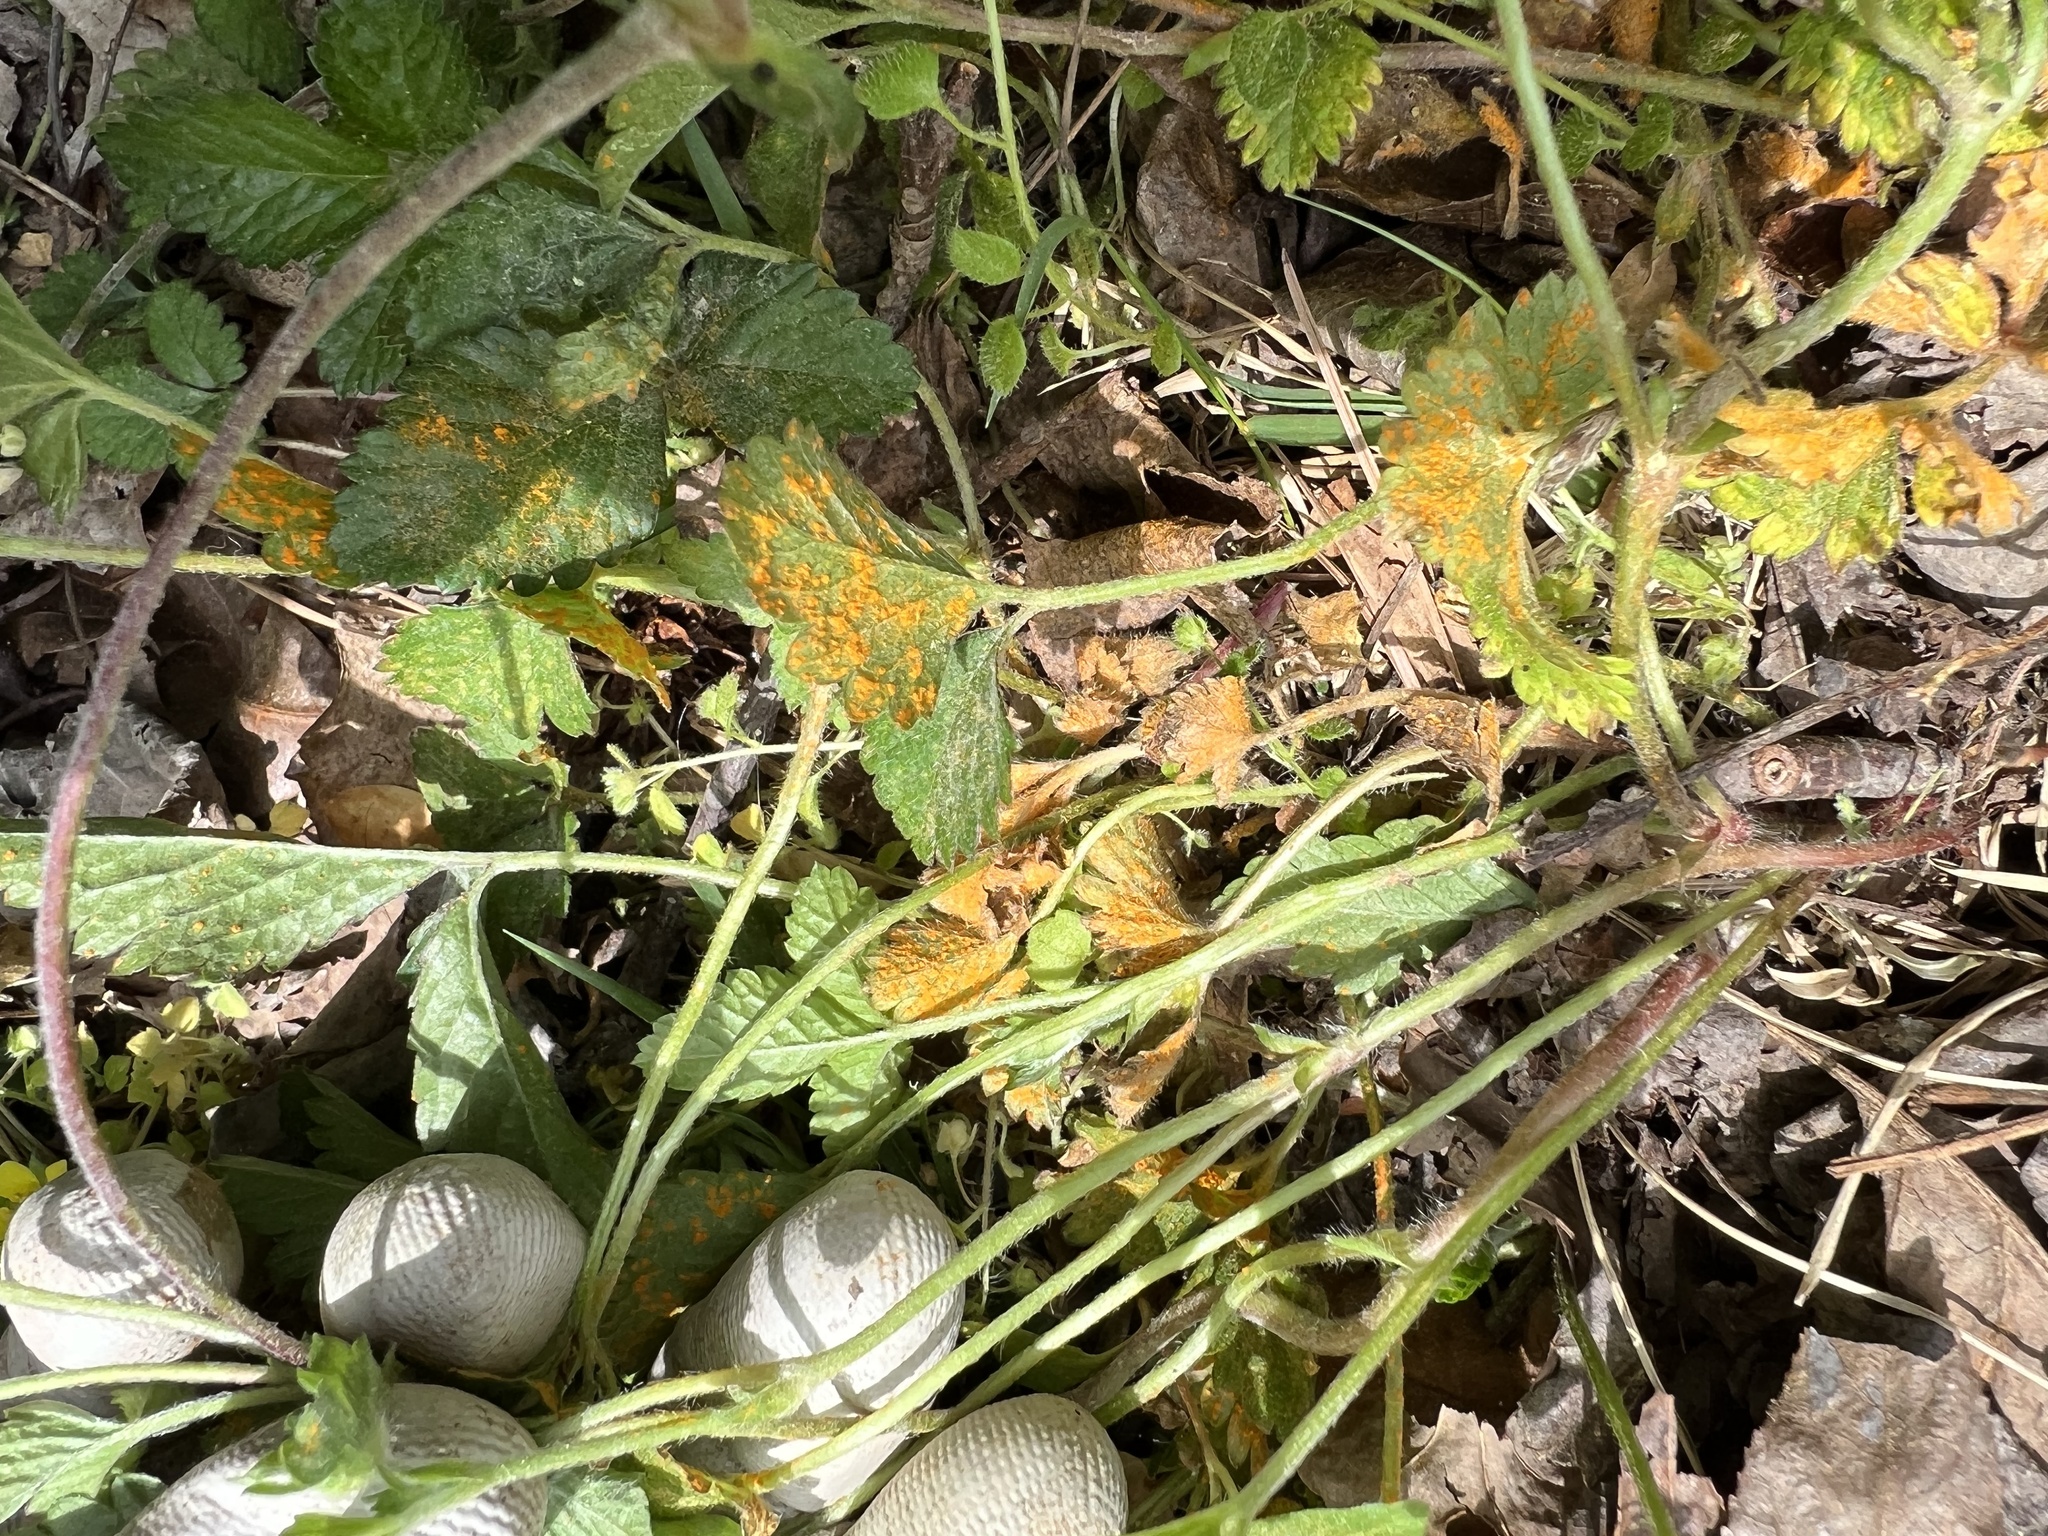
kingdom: Fungi
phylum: Basidiomycota
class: Pucciniomycetes
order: Pucciniales
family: Phragmidiaceae
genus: Arthuriomyces
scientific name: Arthuriomyces peckianus
